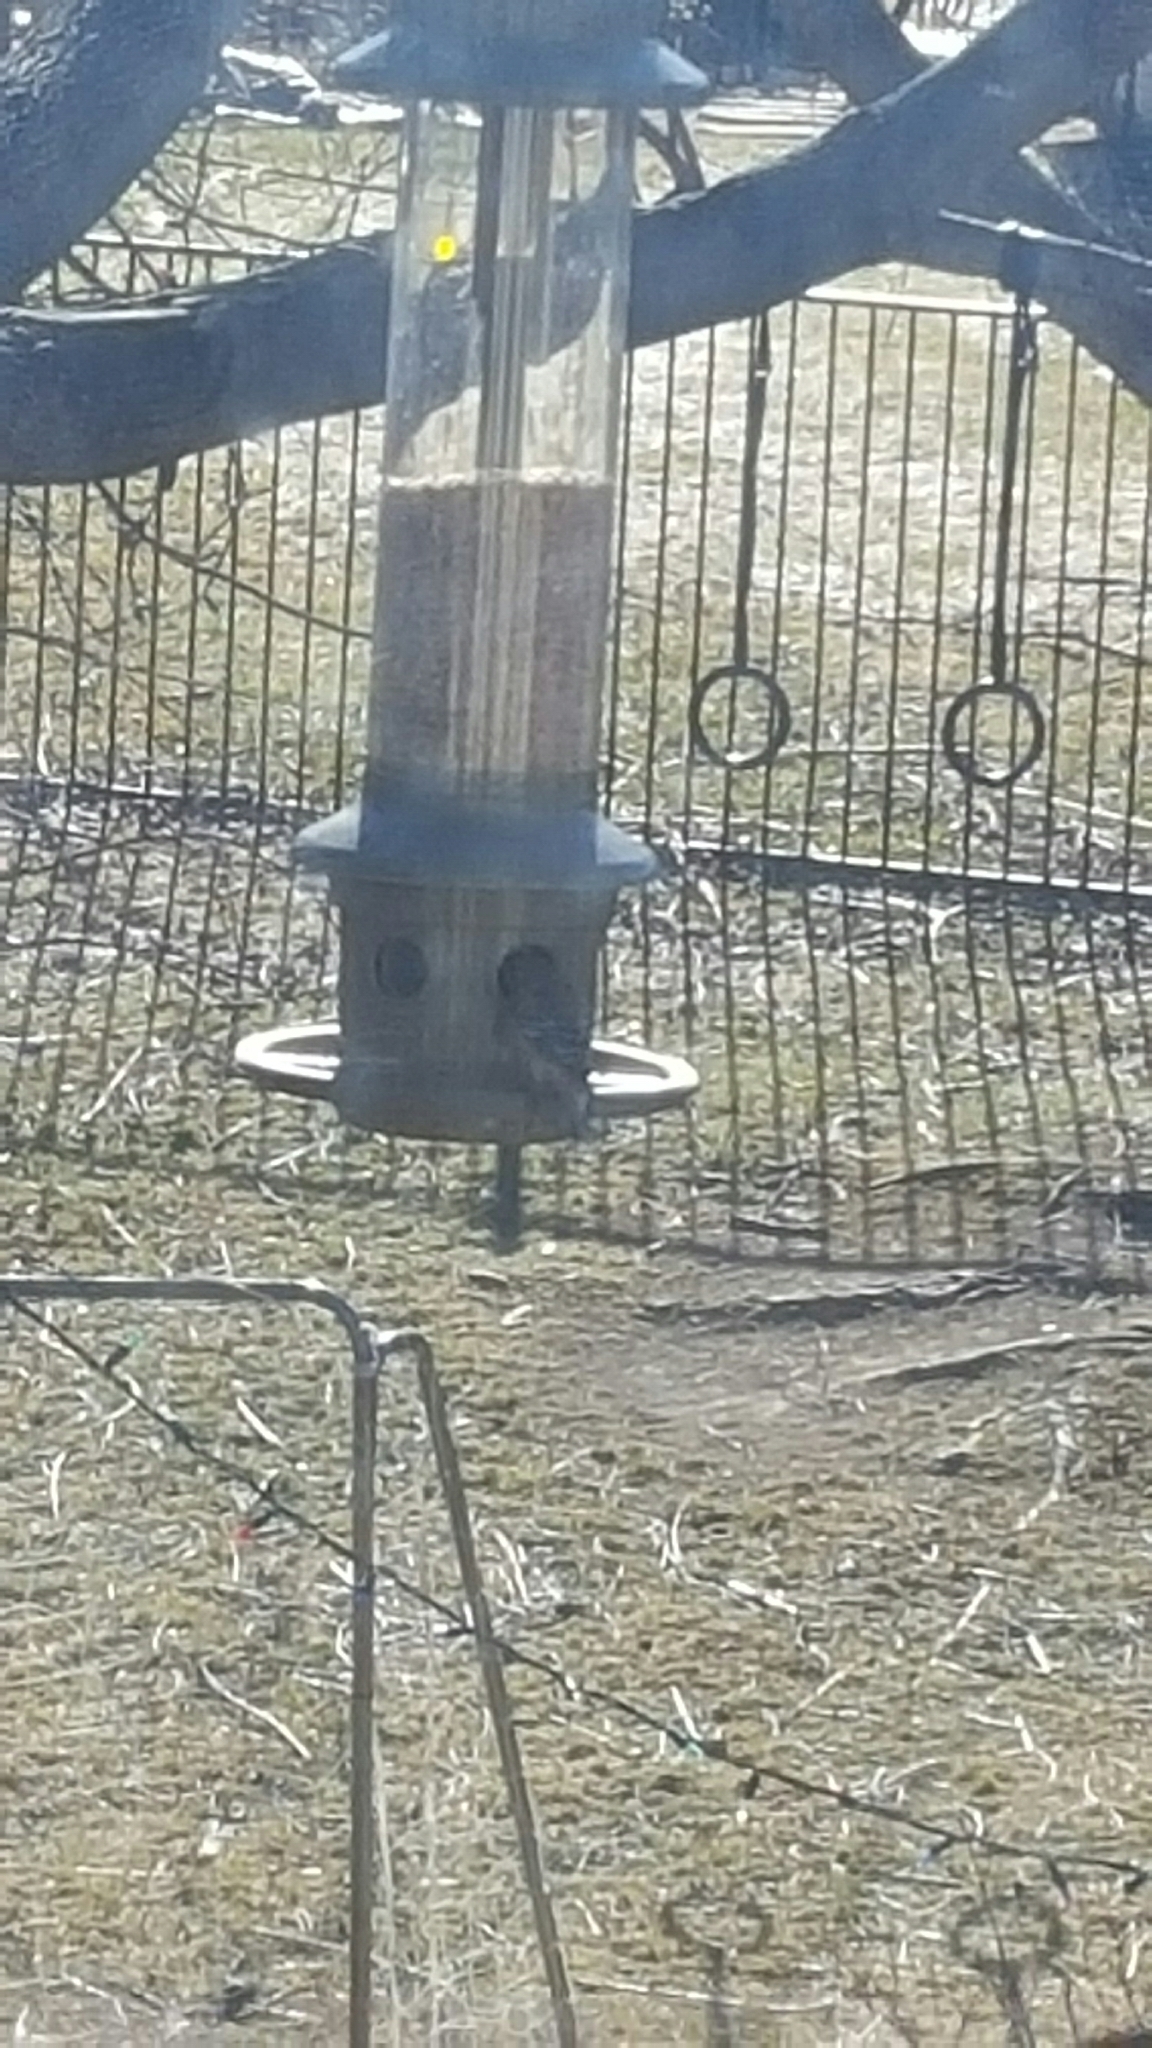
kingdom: Animalia
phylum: Chordata
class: Aves
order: Passeriformes
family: Fringillidae
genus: Spinus
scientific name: Spinus tristis
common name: American goldfinch
